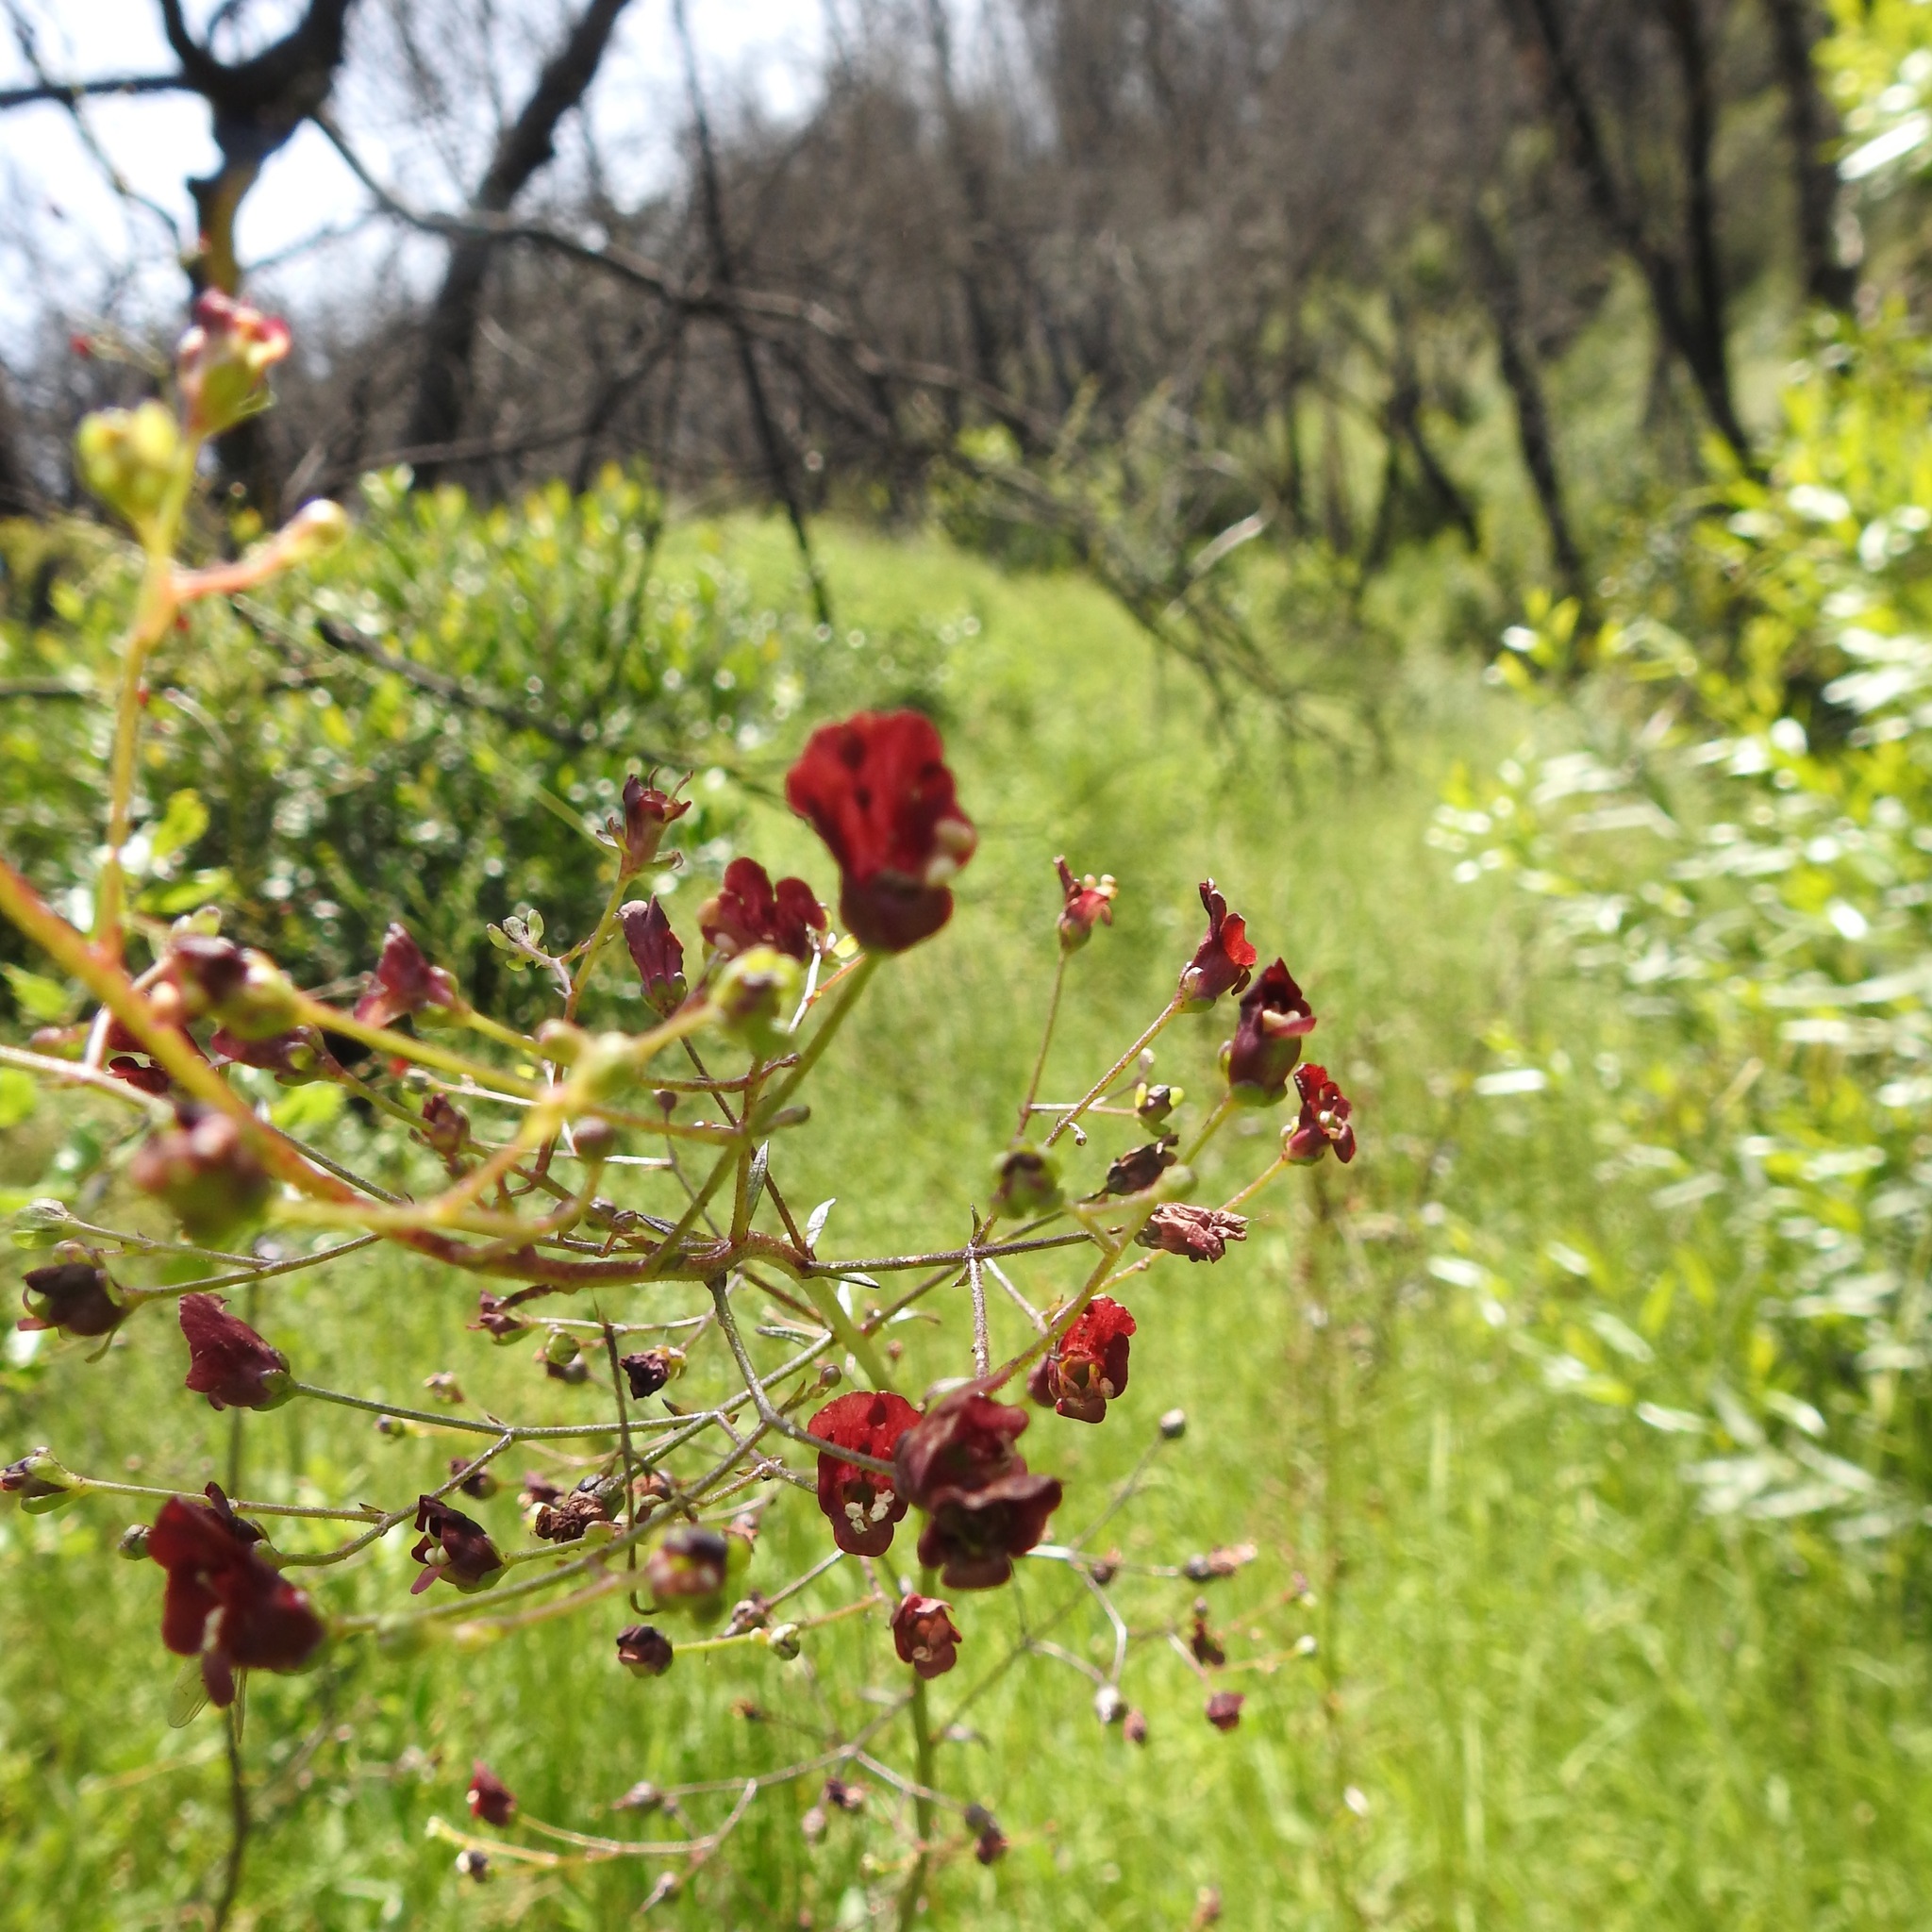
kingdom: Plantae
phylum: Tracheophyta
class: Magnoliopsida
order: Lamiales
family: Scrophulariaceae
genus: Scrophularia
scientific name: Scrophularia californica
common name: California figwort
